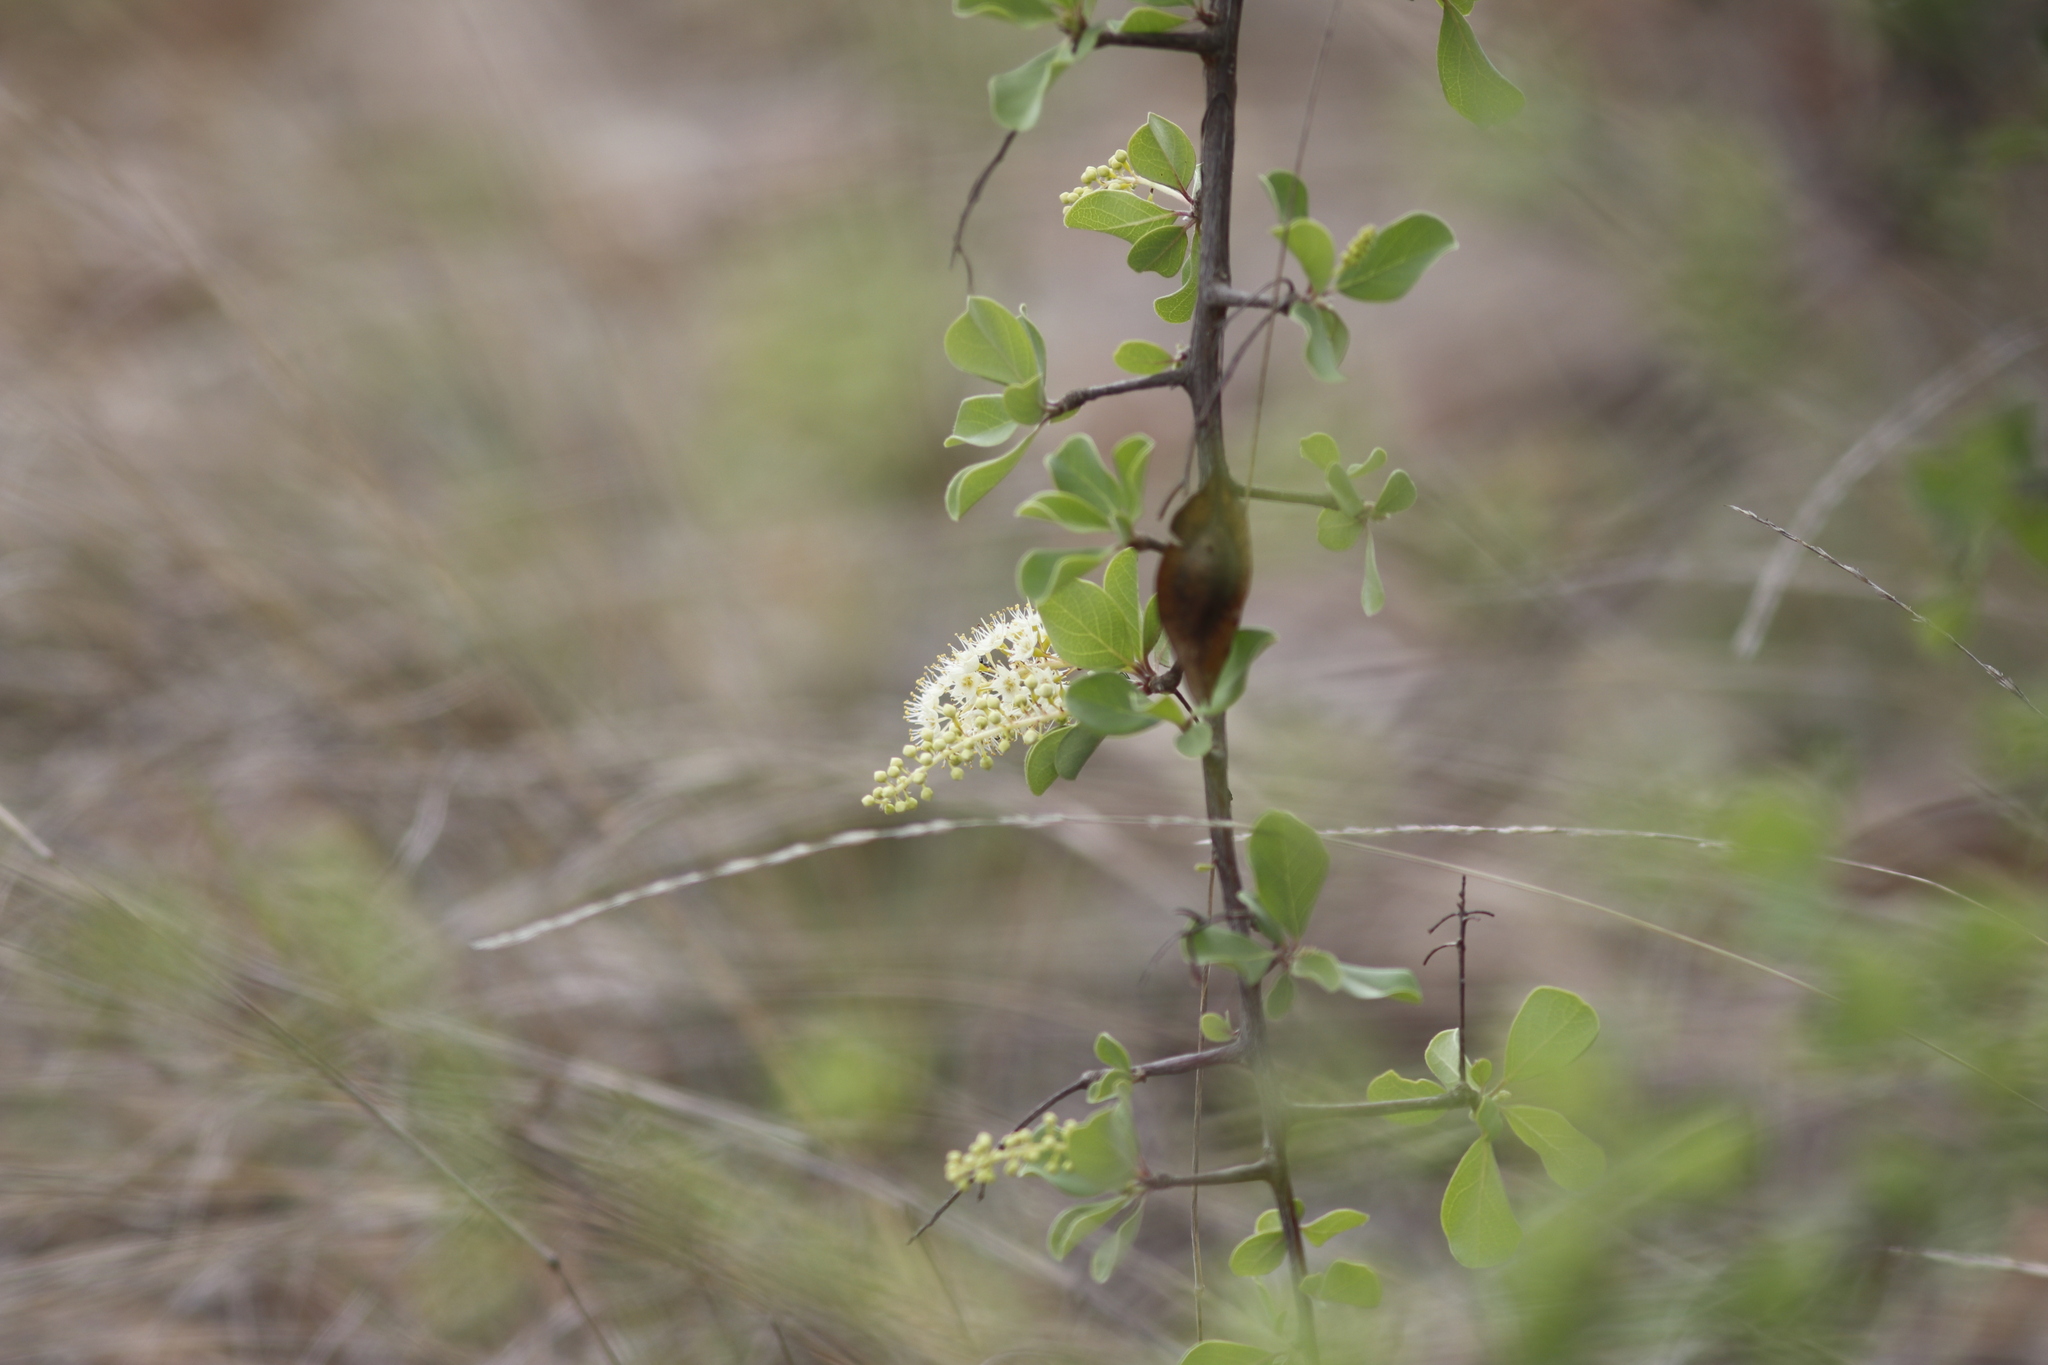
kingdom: Plantae
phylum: Tracheophyta
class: Magnoliopsida
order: Myrtales
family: Combretaceae
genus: Terminalia
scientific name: Terminalia prunioides
